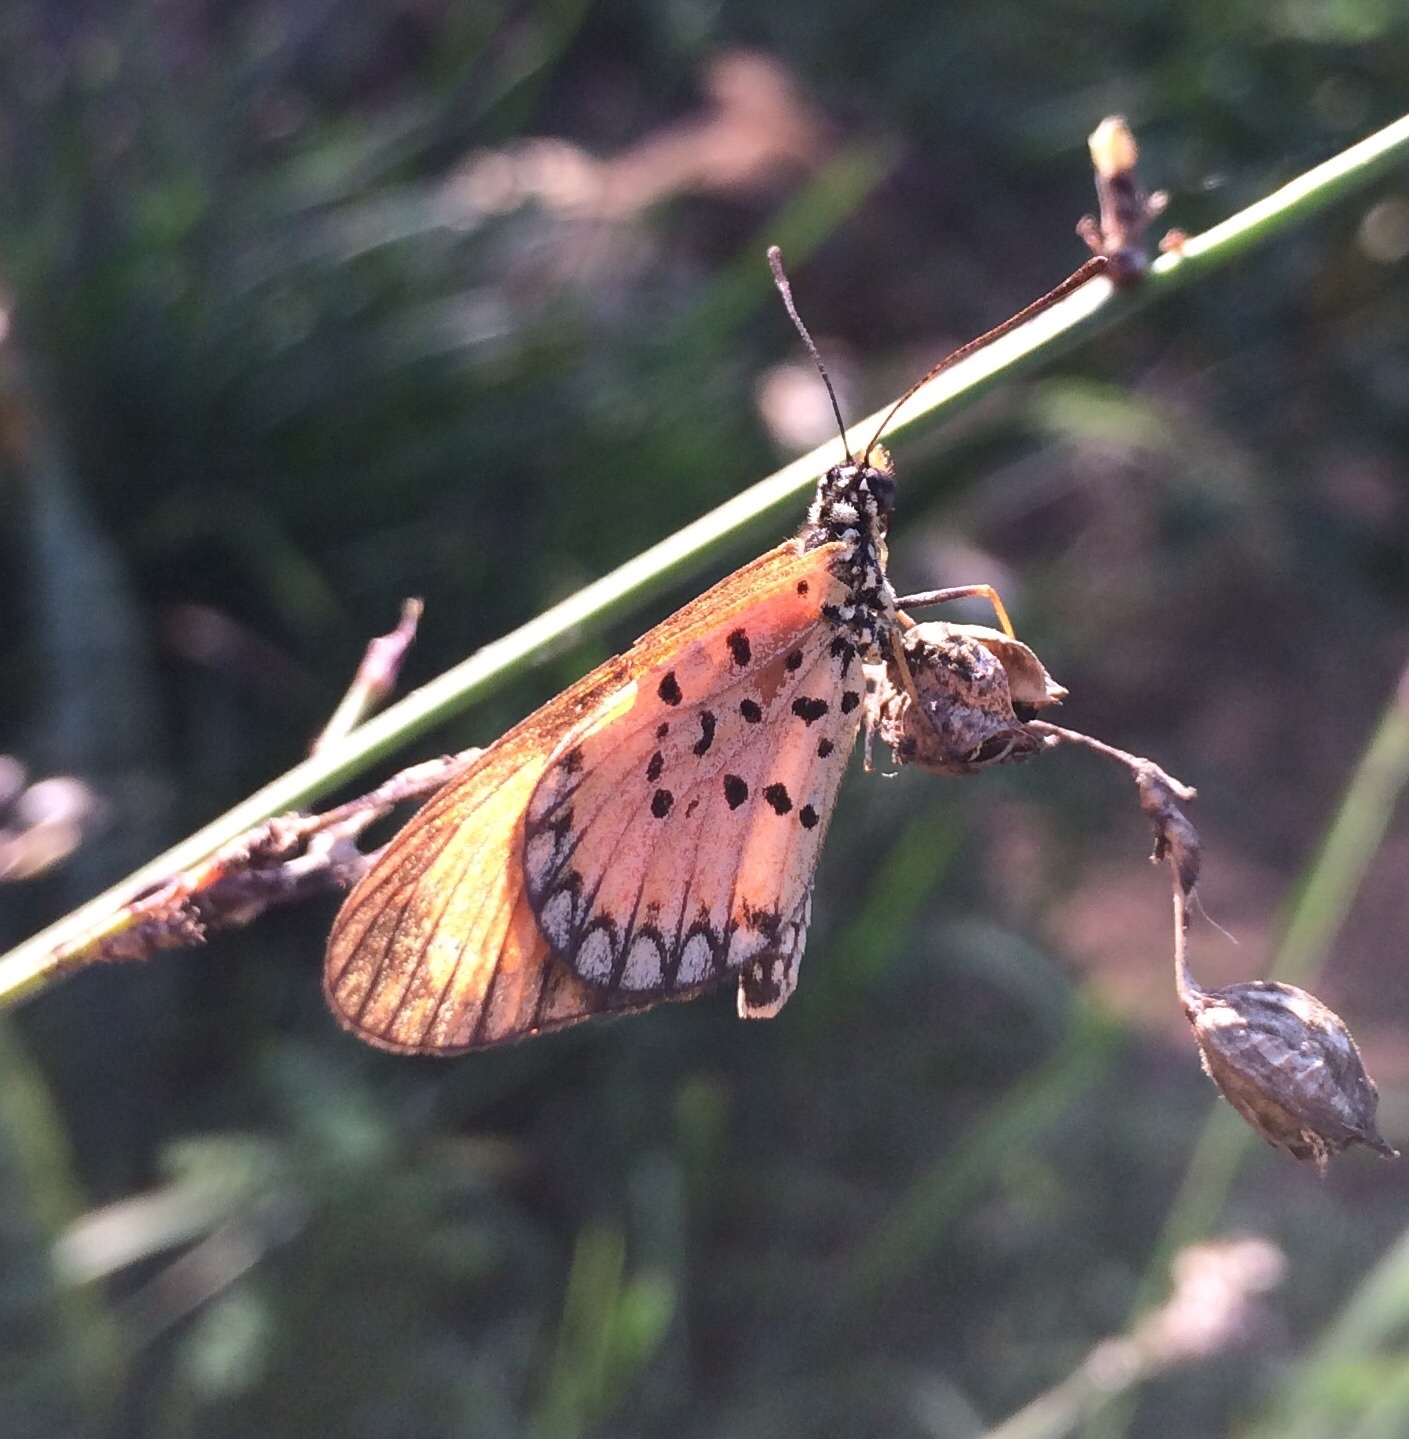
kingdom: Animalia
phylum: Arthropoda
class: Insecta
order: Lepidoptera
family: Nymphalidae
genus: Acraea
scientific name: Acraea Telchinia serena
